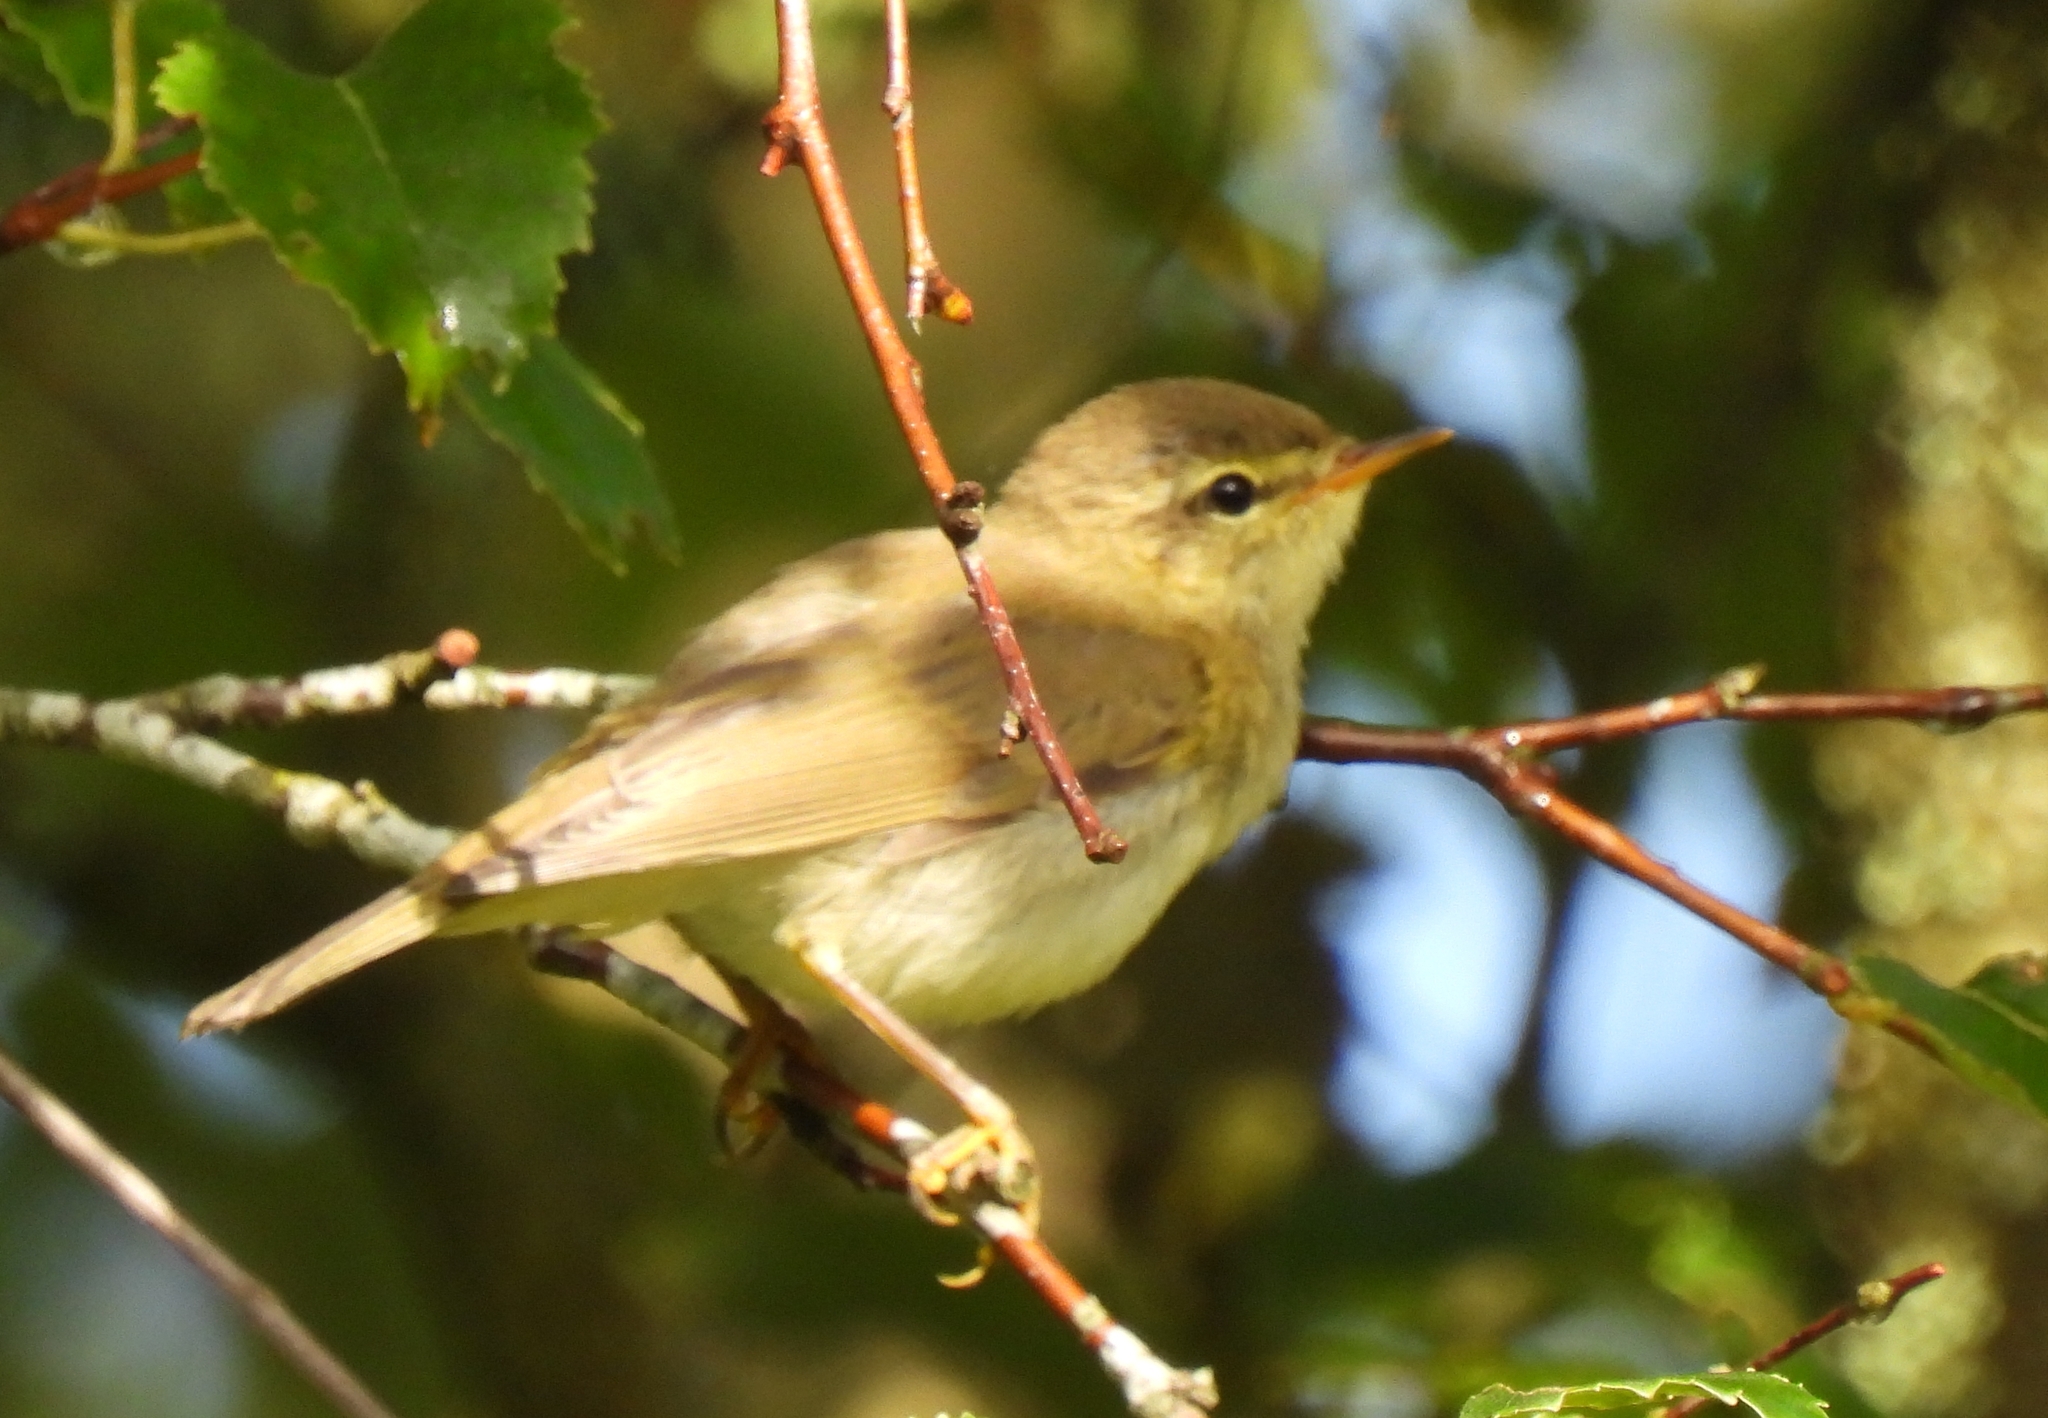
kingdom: Animalia
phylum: Chordata
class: Aves
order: Passeriformes
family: Phylloscopidae
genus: Phylloscopus
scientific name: Phylloscopus trochilus
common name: Willow warbler
